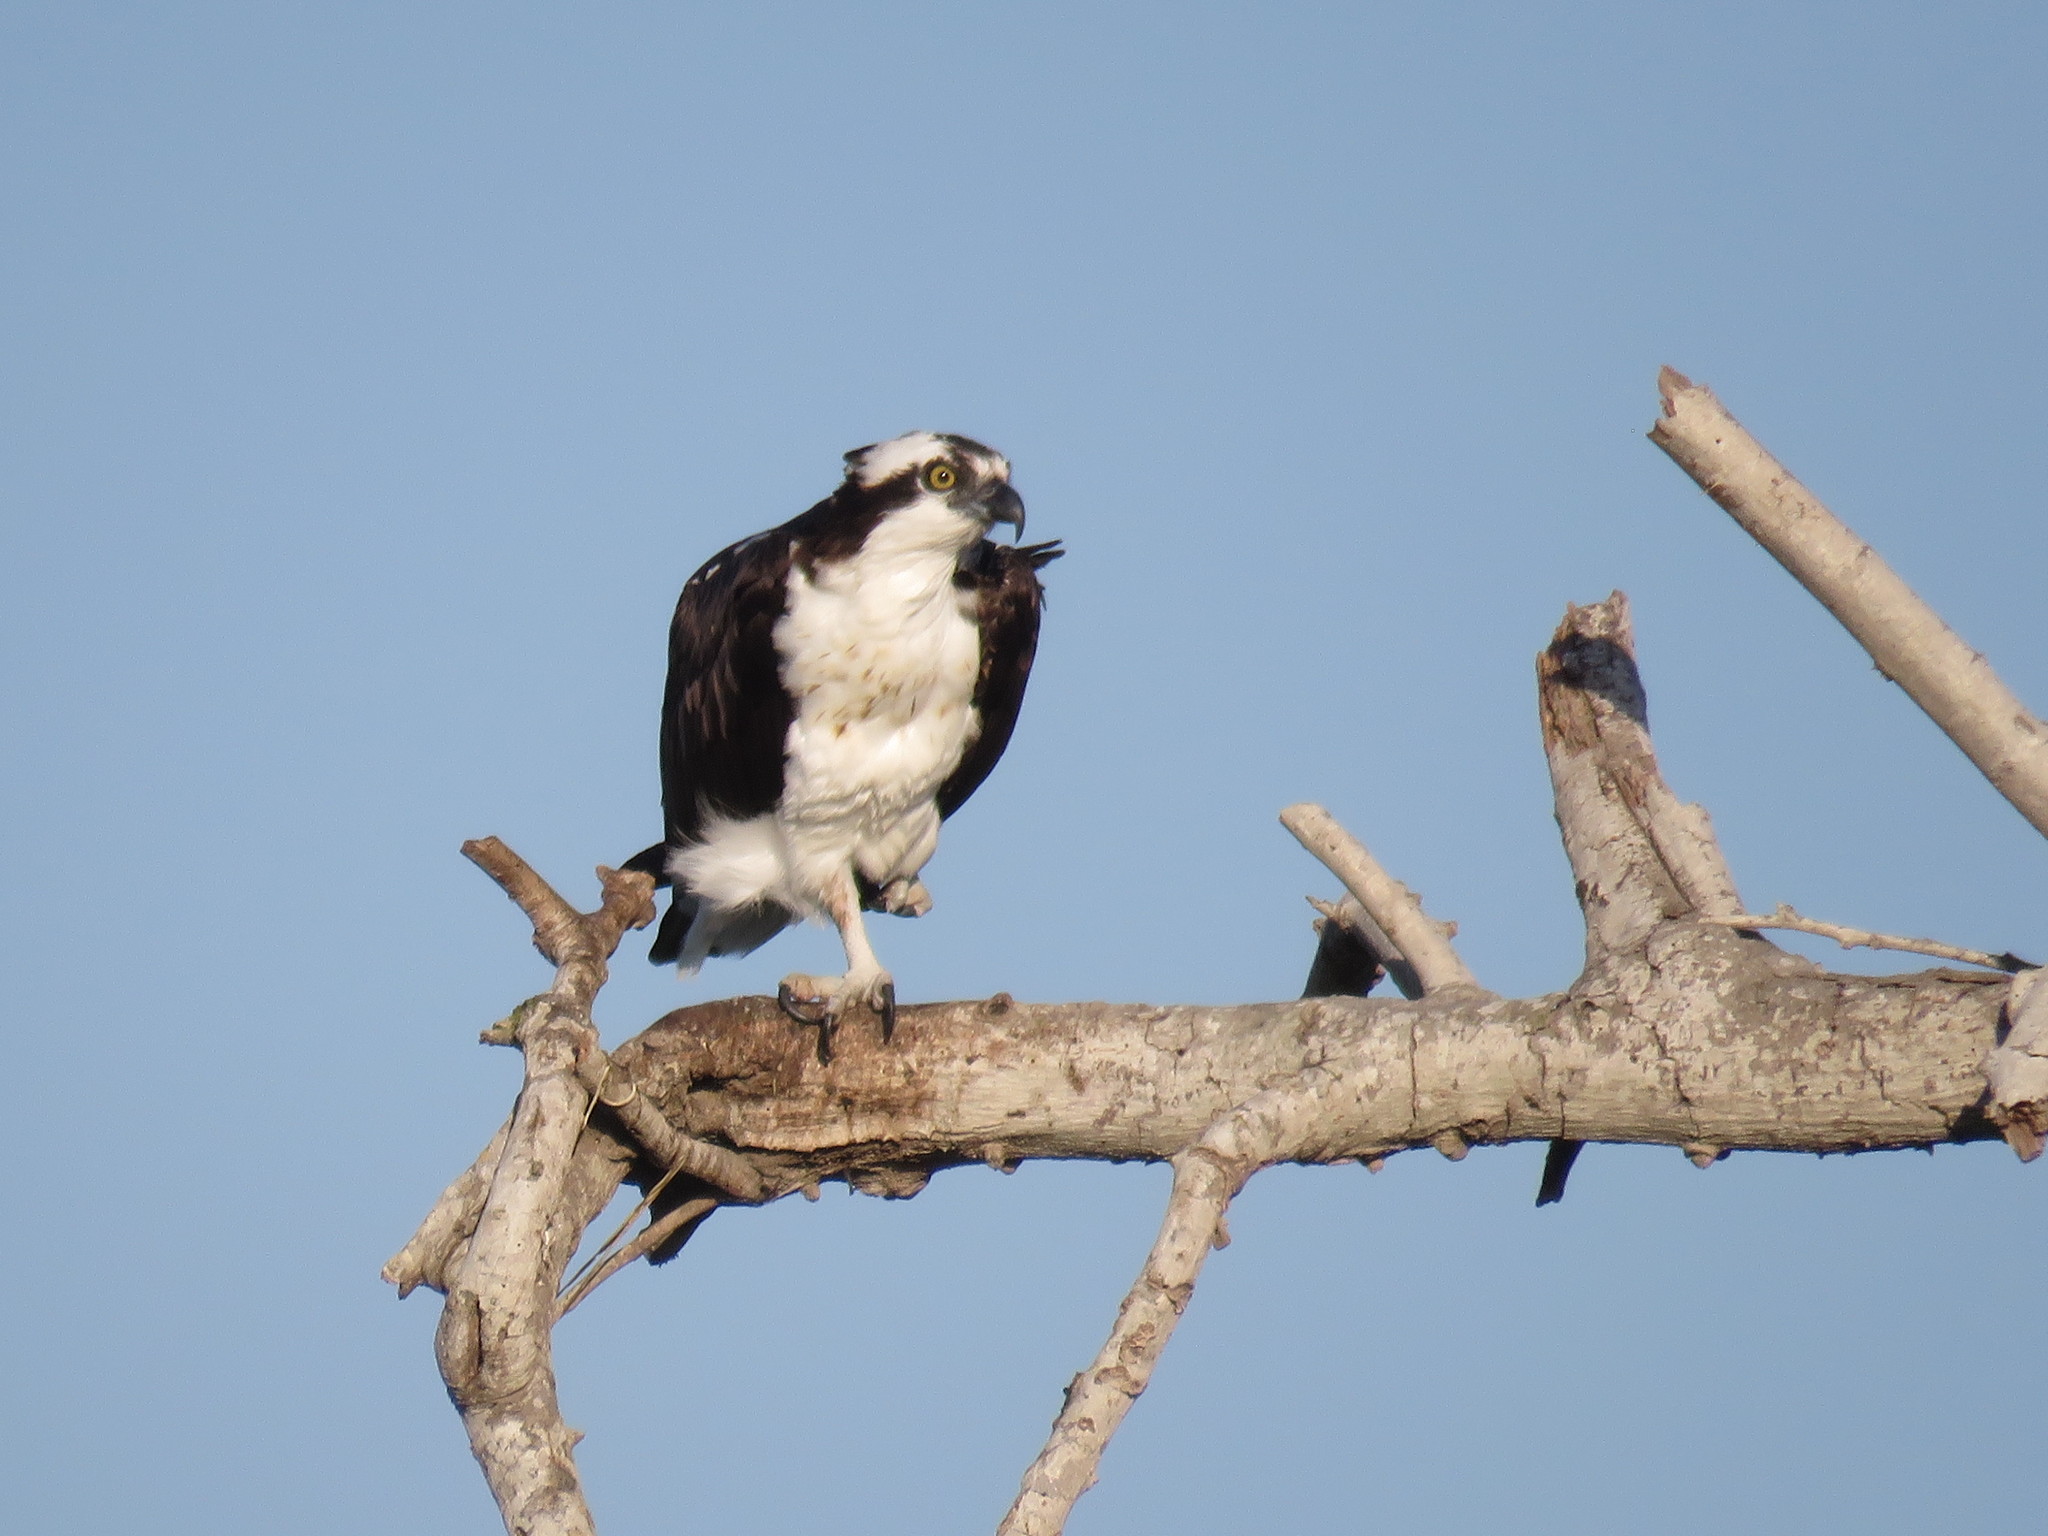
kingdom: Animalia
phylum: Chordata
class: Aves
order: Accipitriformes
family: Pandionidae
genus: Pandion
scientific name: Pandion haliaetus
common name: Osprey
